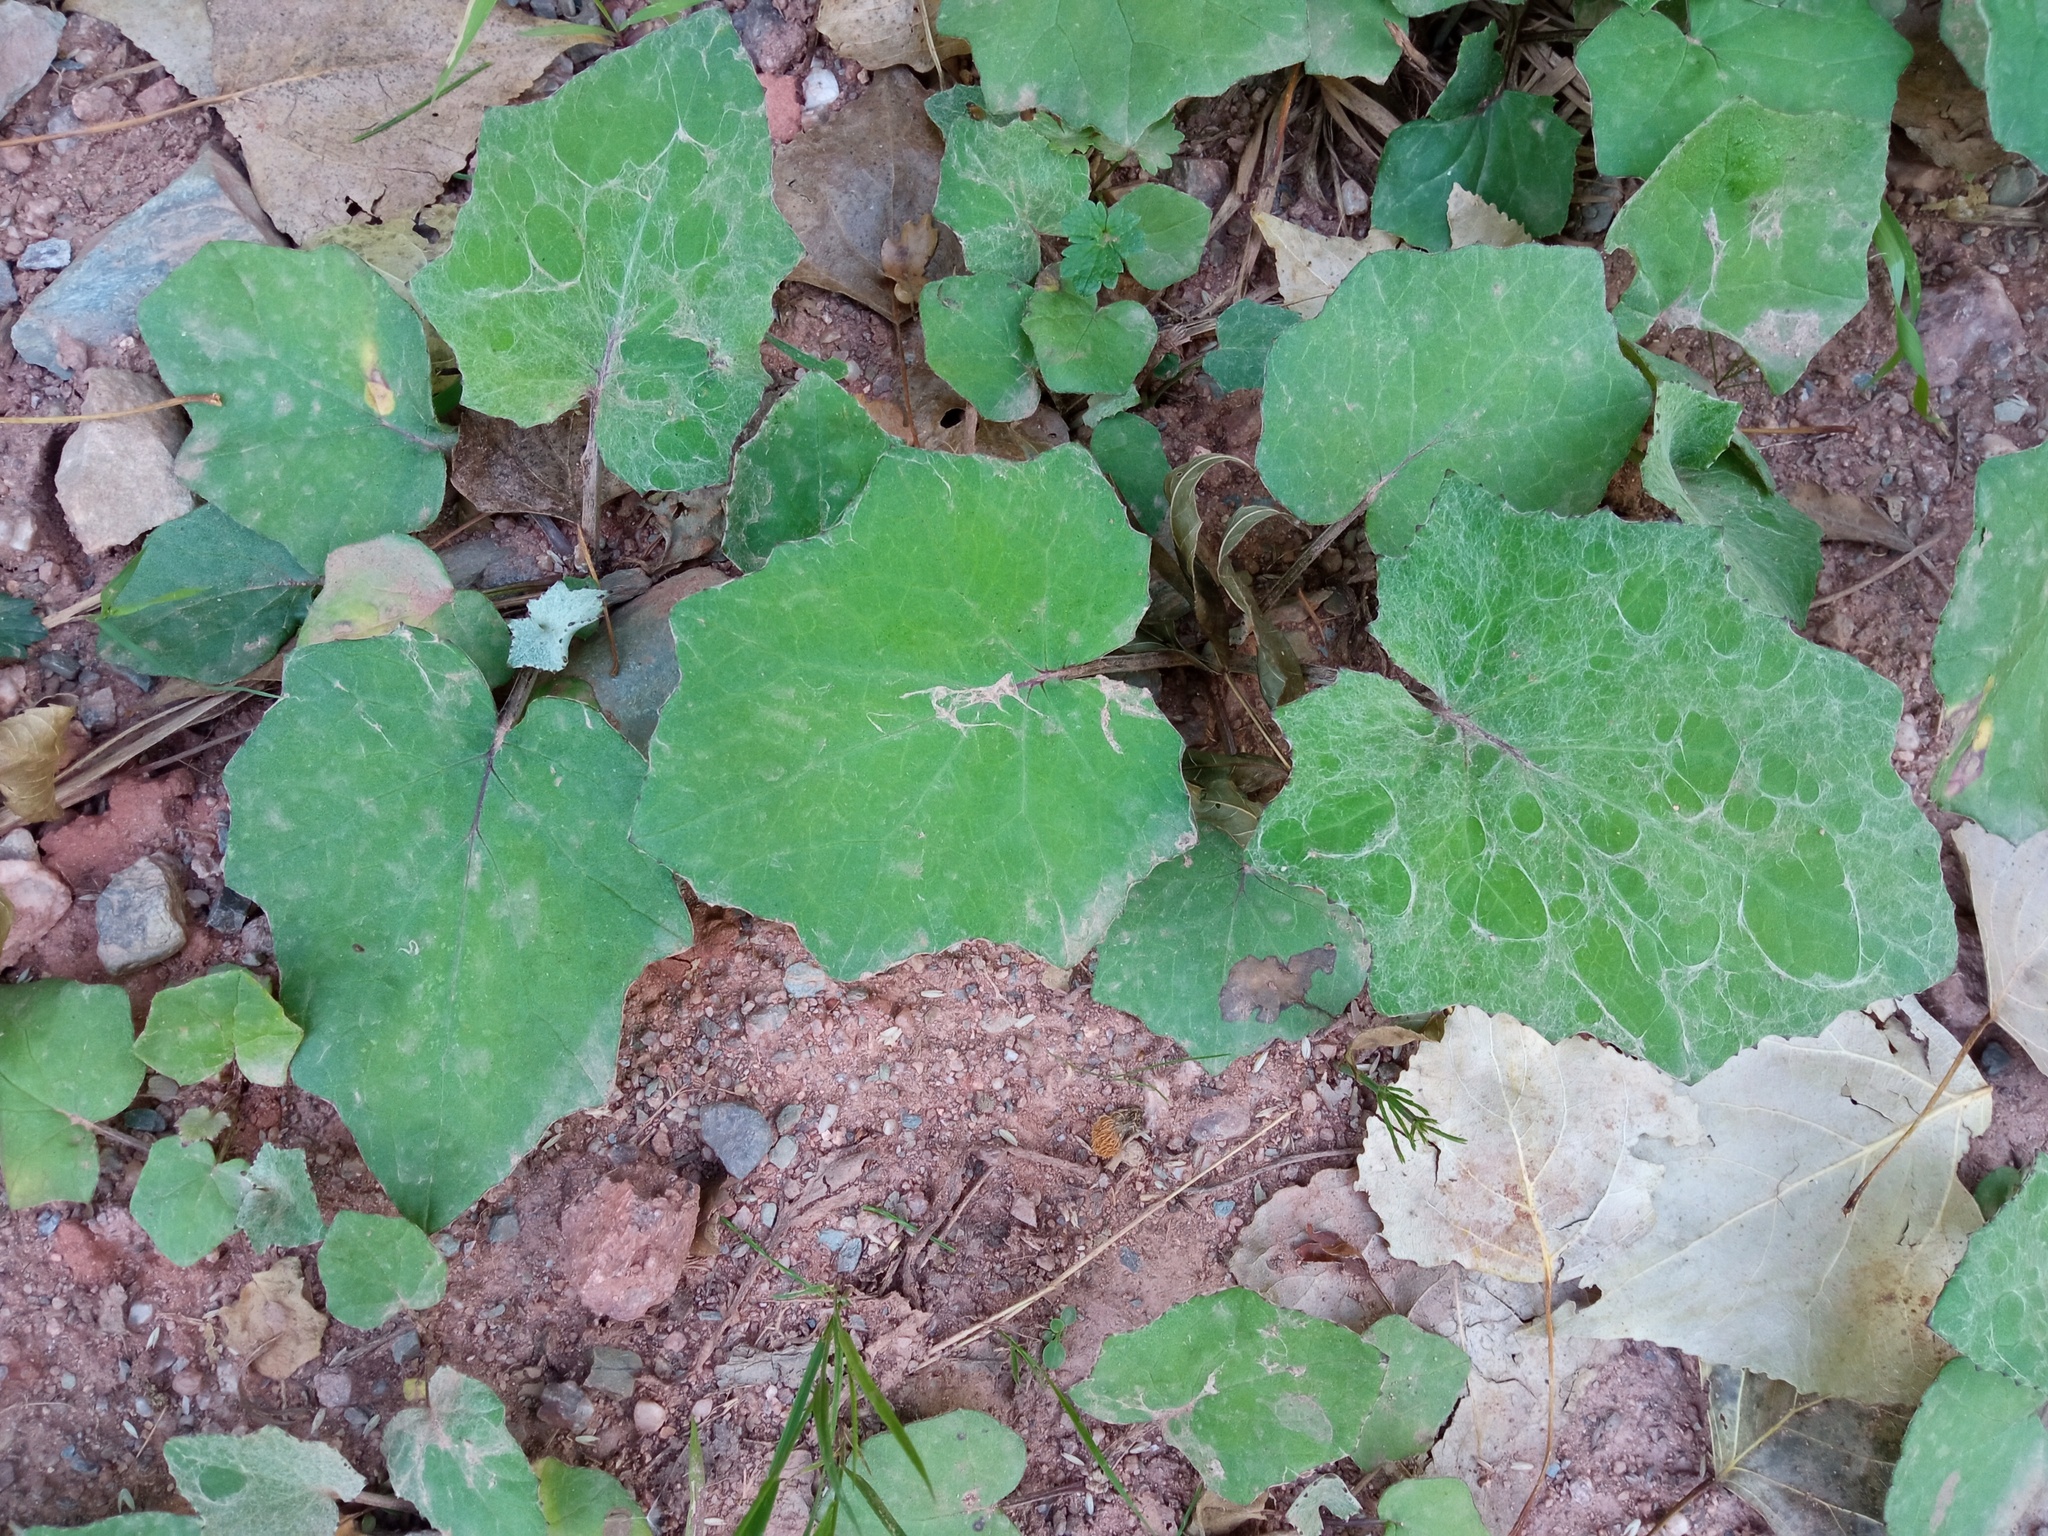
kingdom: Plantae
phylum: Tracheophyta
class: Magnoliopsida
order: Asterales
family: Asteraceae
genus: Tussilago
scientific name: Tussilago farfara
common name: Coltsfoot
